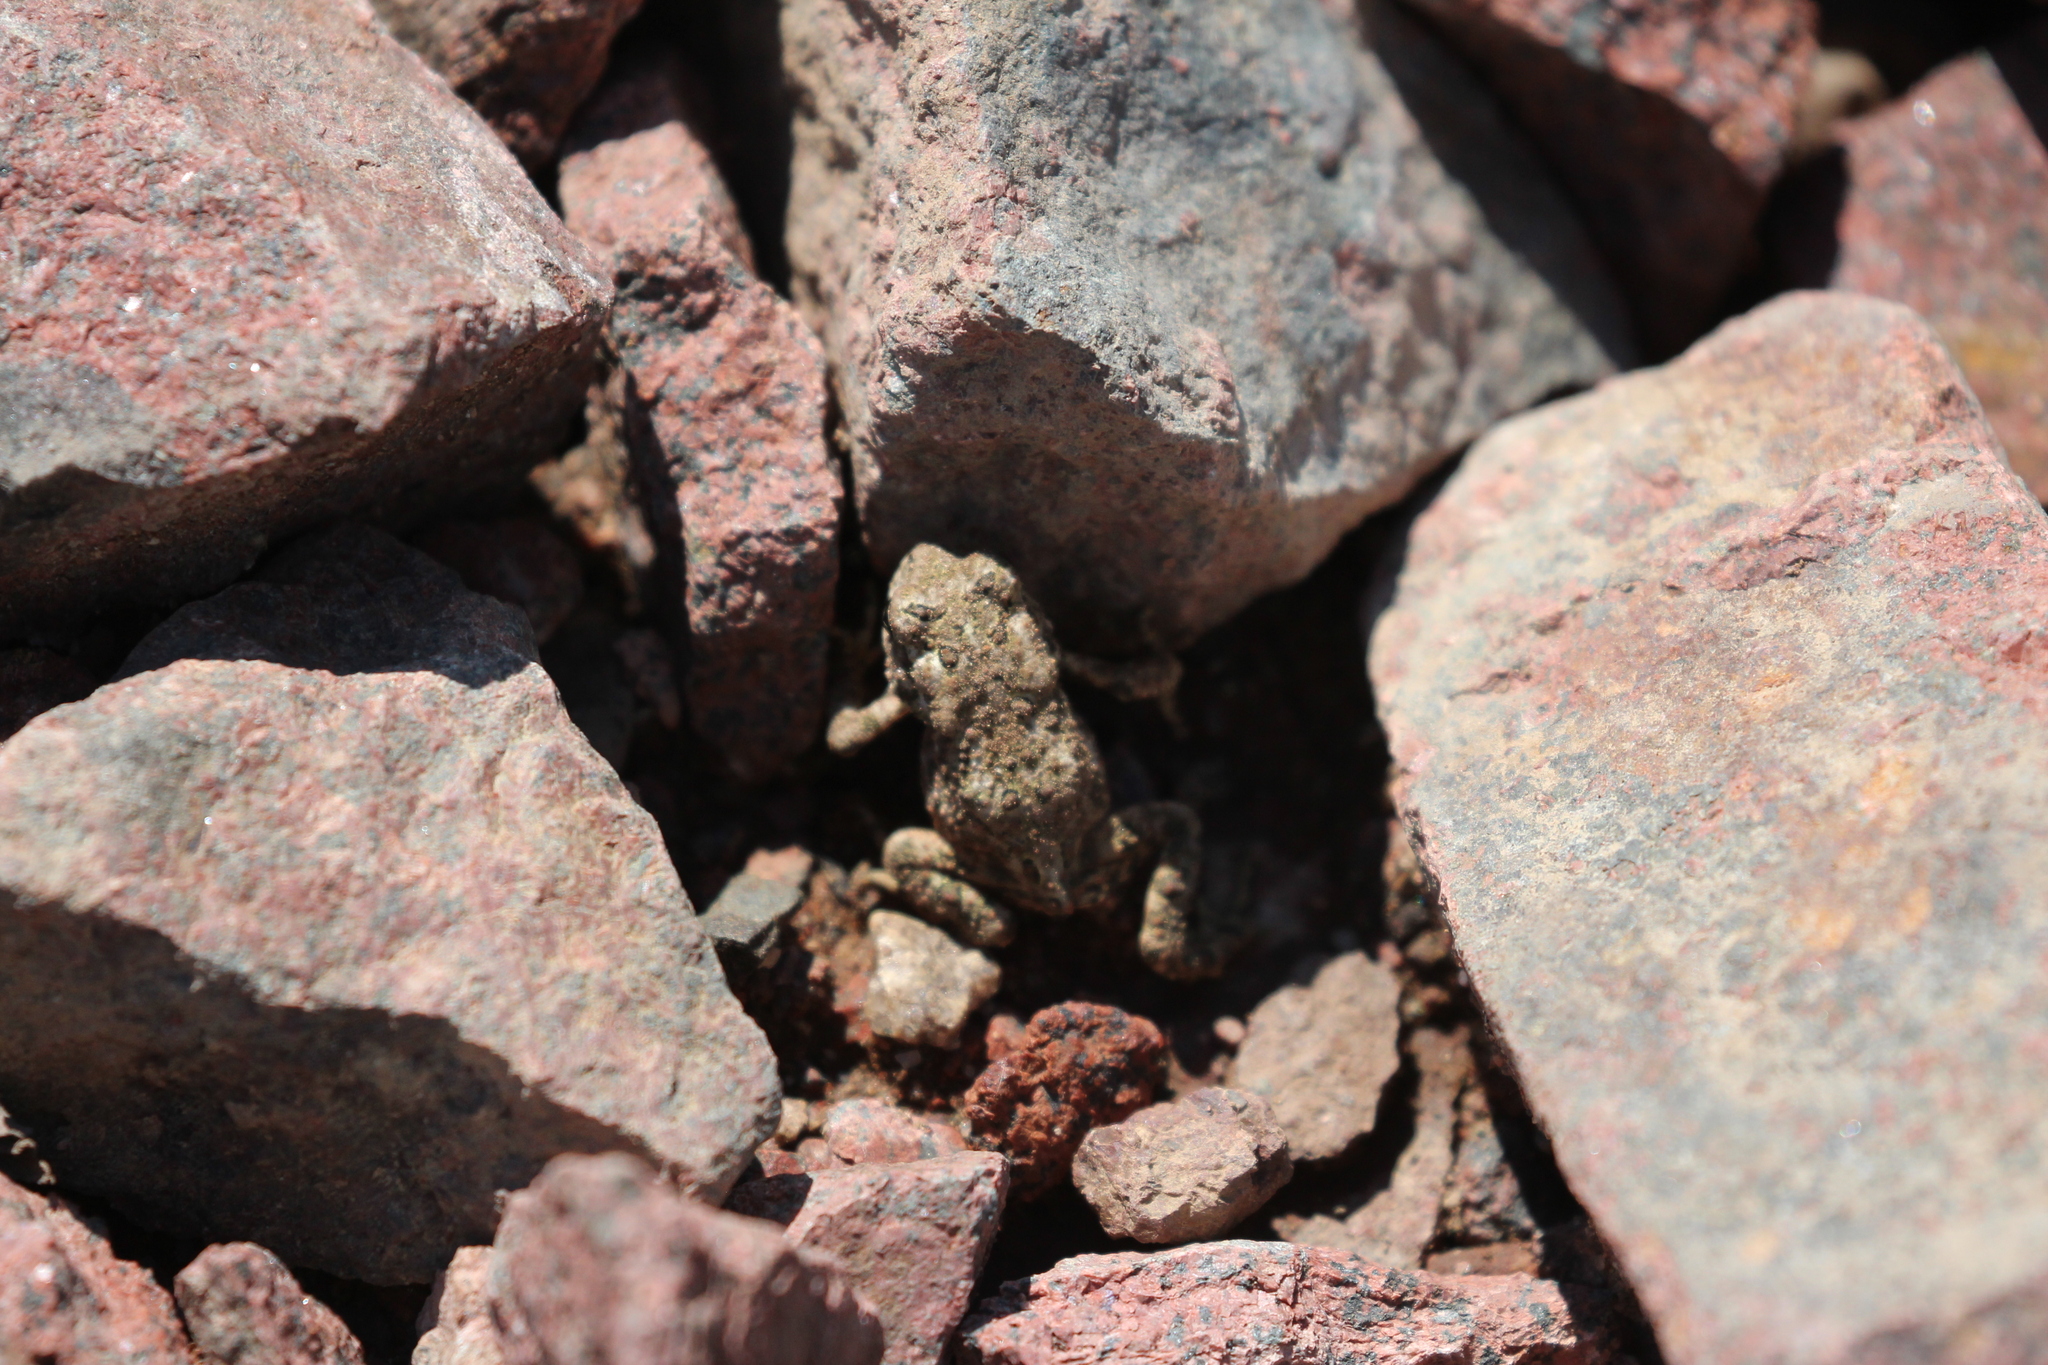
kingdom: Animalia
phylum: Chordata
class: Amphibia
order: Anura
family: Bufonidae
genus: Anaxyrus
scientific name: Anaxyrus americanus
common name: American toad
